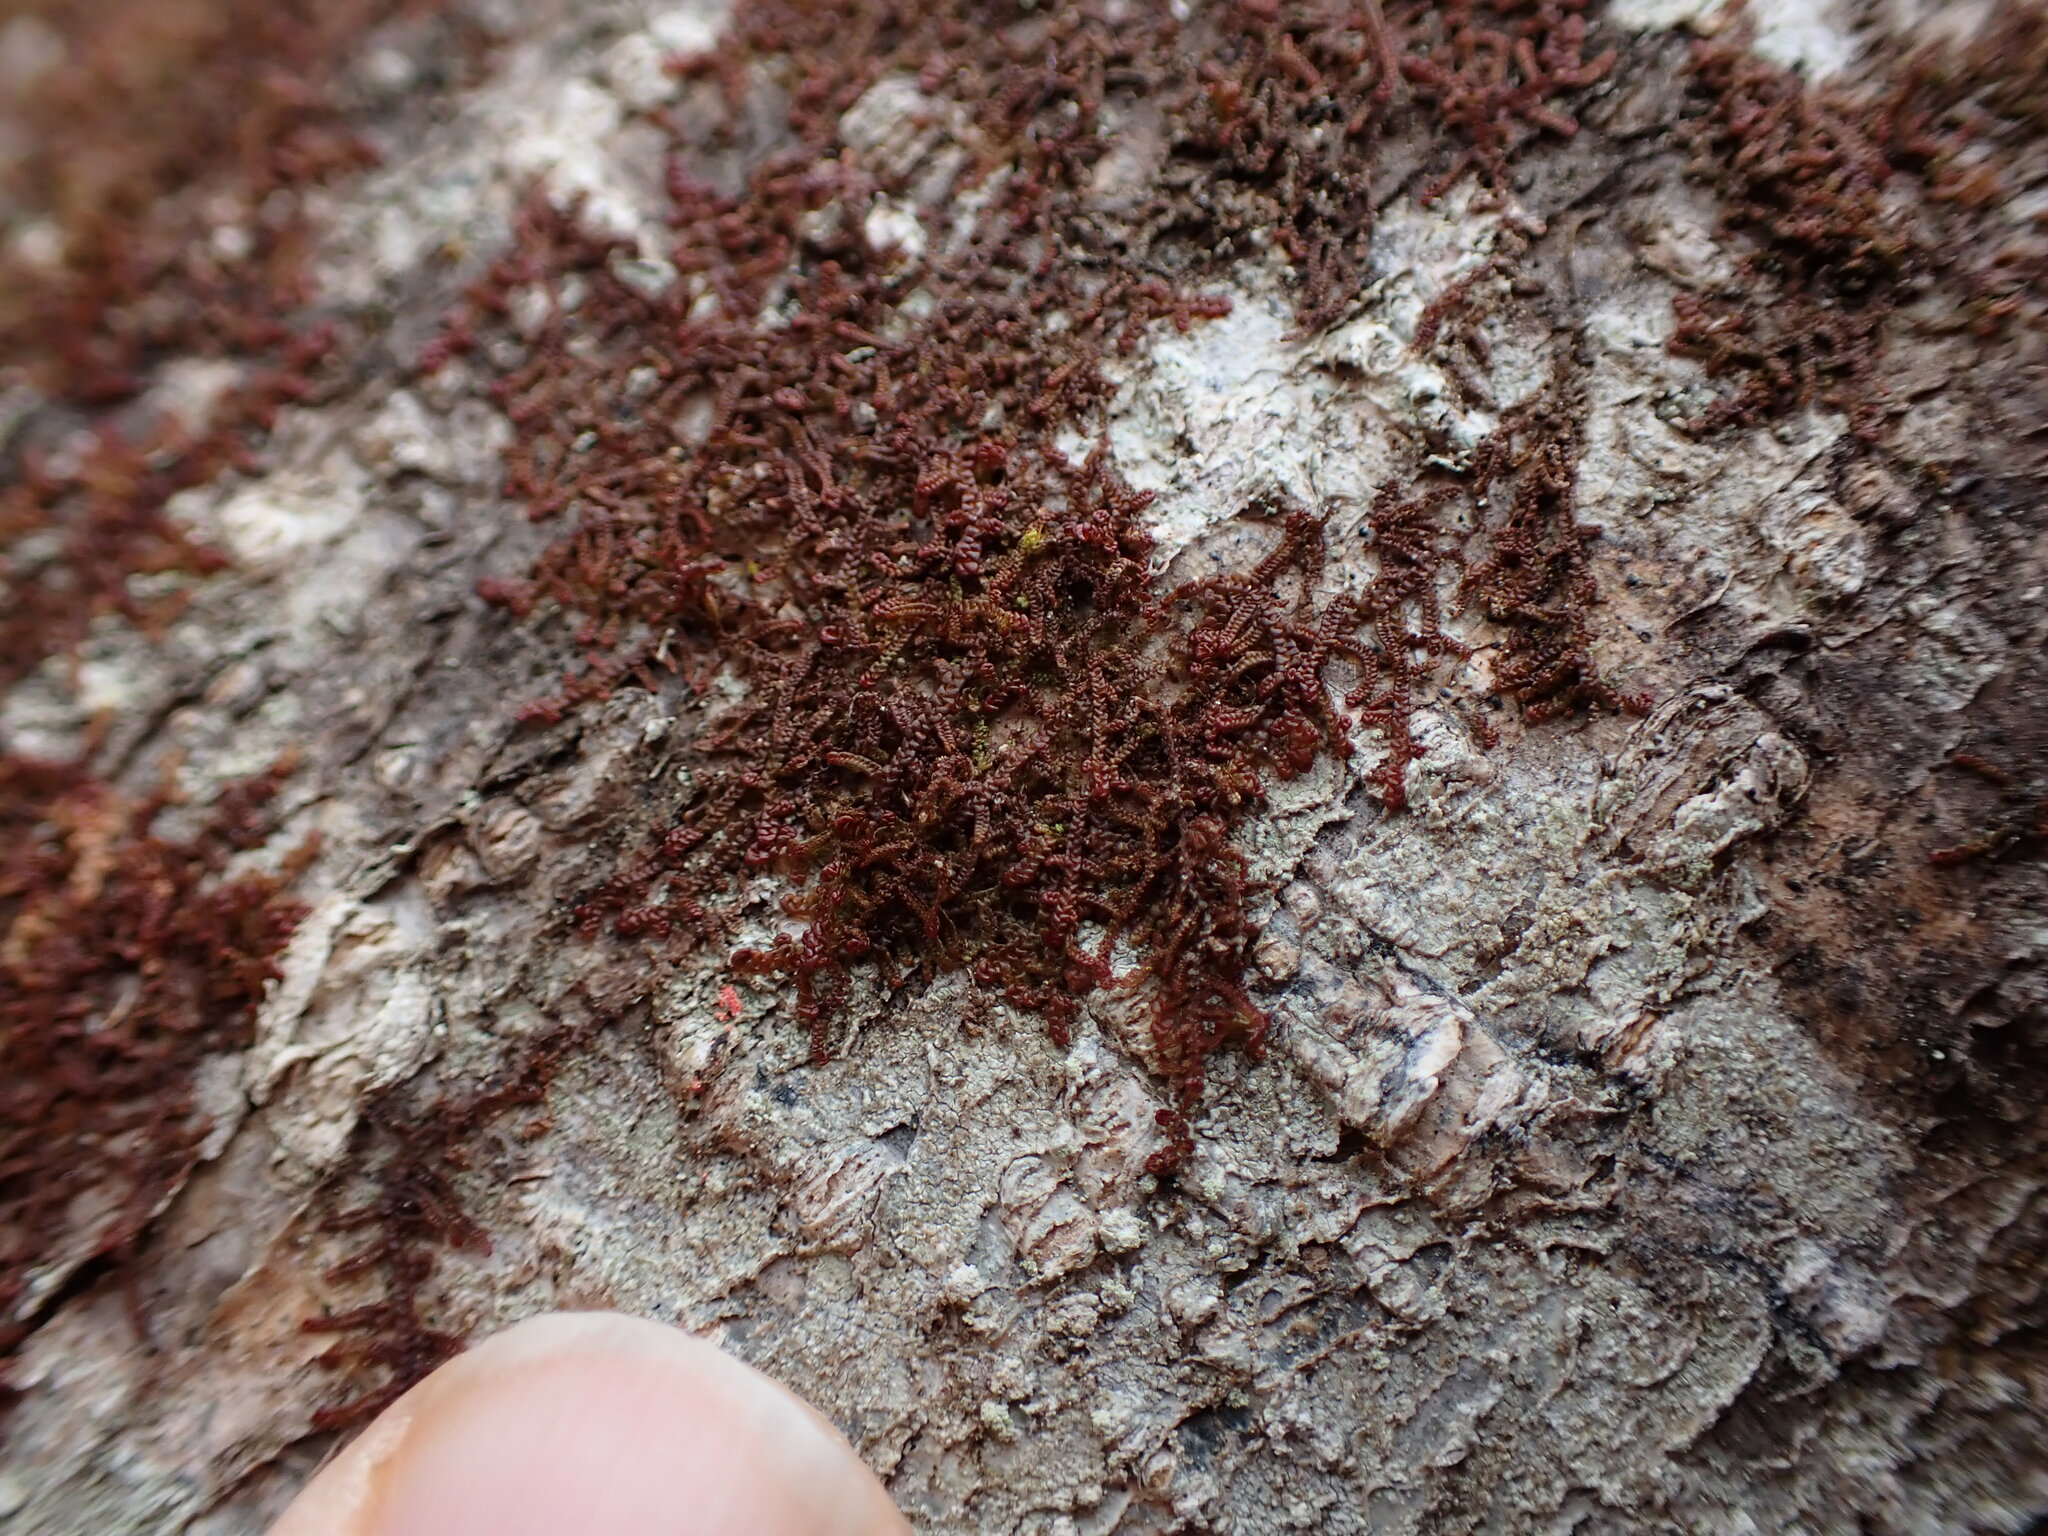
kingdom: Plantae
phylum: Marchantiophyta
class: Jungermanniopsida
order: Porellales
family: Frullaniaceae
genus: Frullania
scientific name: Frullania nisquallensis
